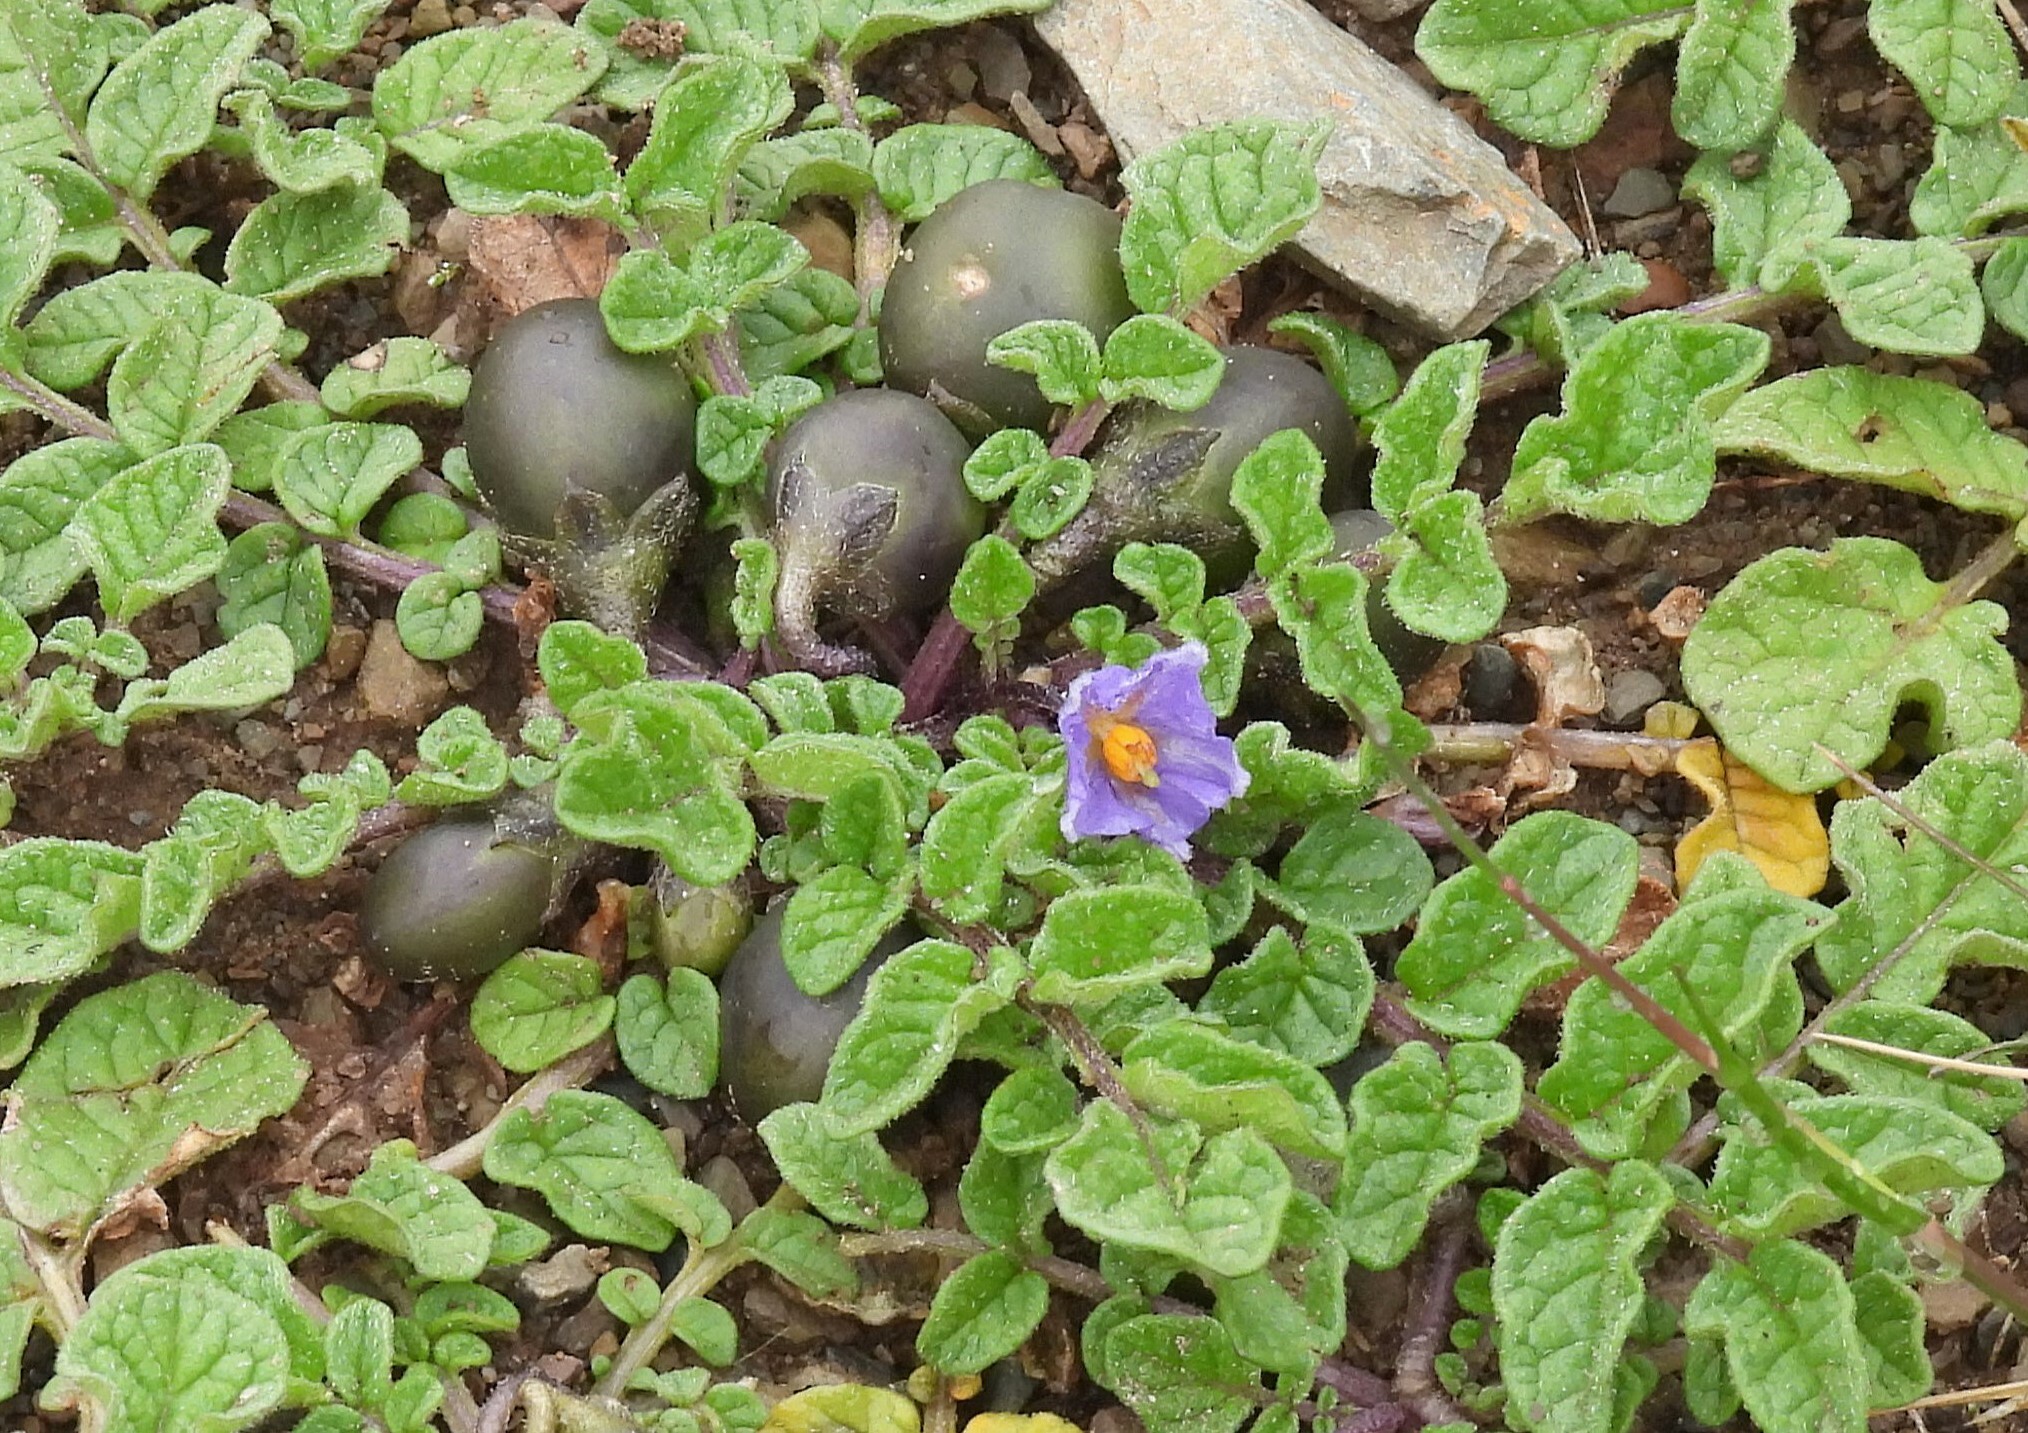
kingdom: Plantae
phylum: Tracheophyta
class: Magnoliopsida
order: Solanales
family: Solanaceae
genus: Solanum
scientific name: Solanum acaule
